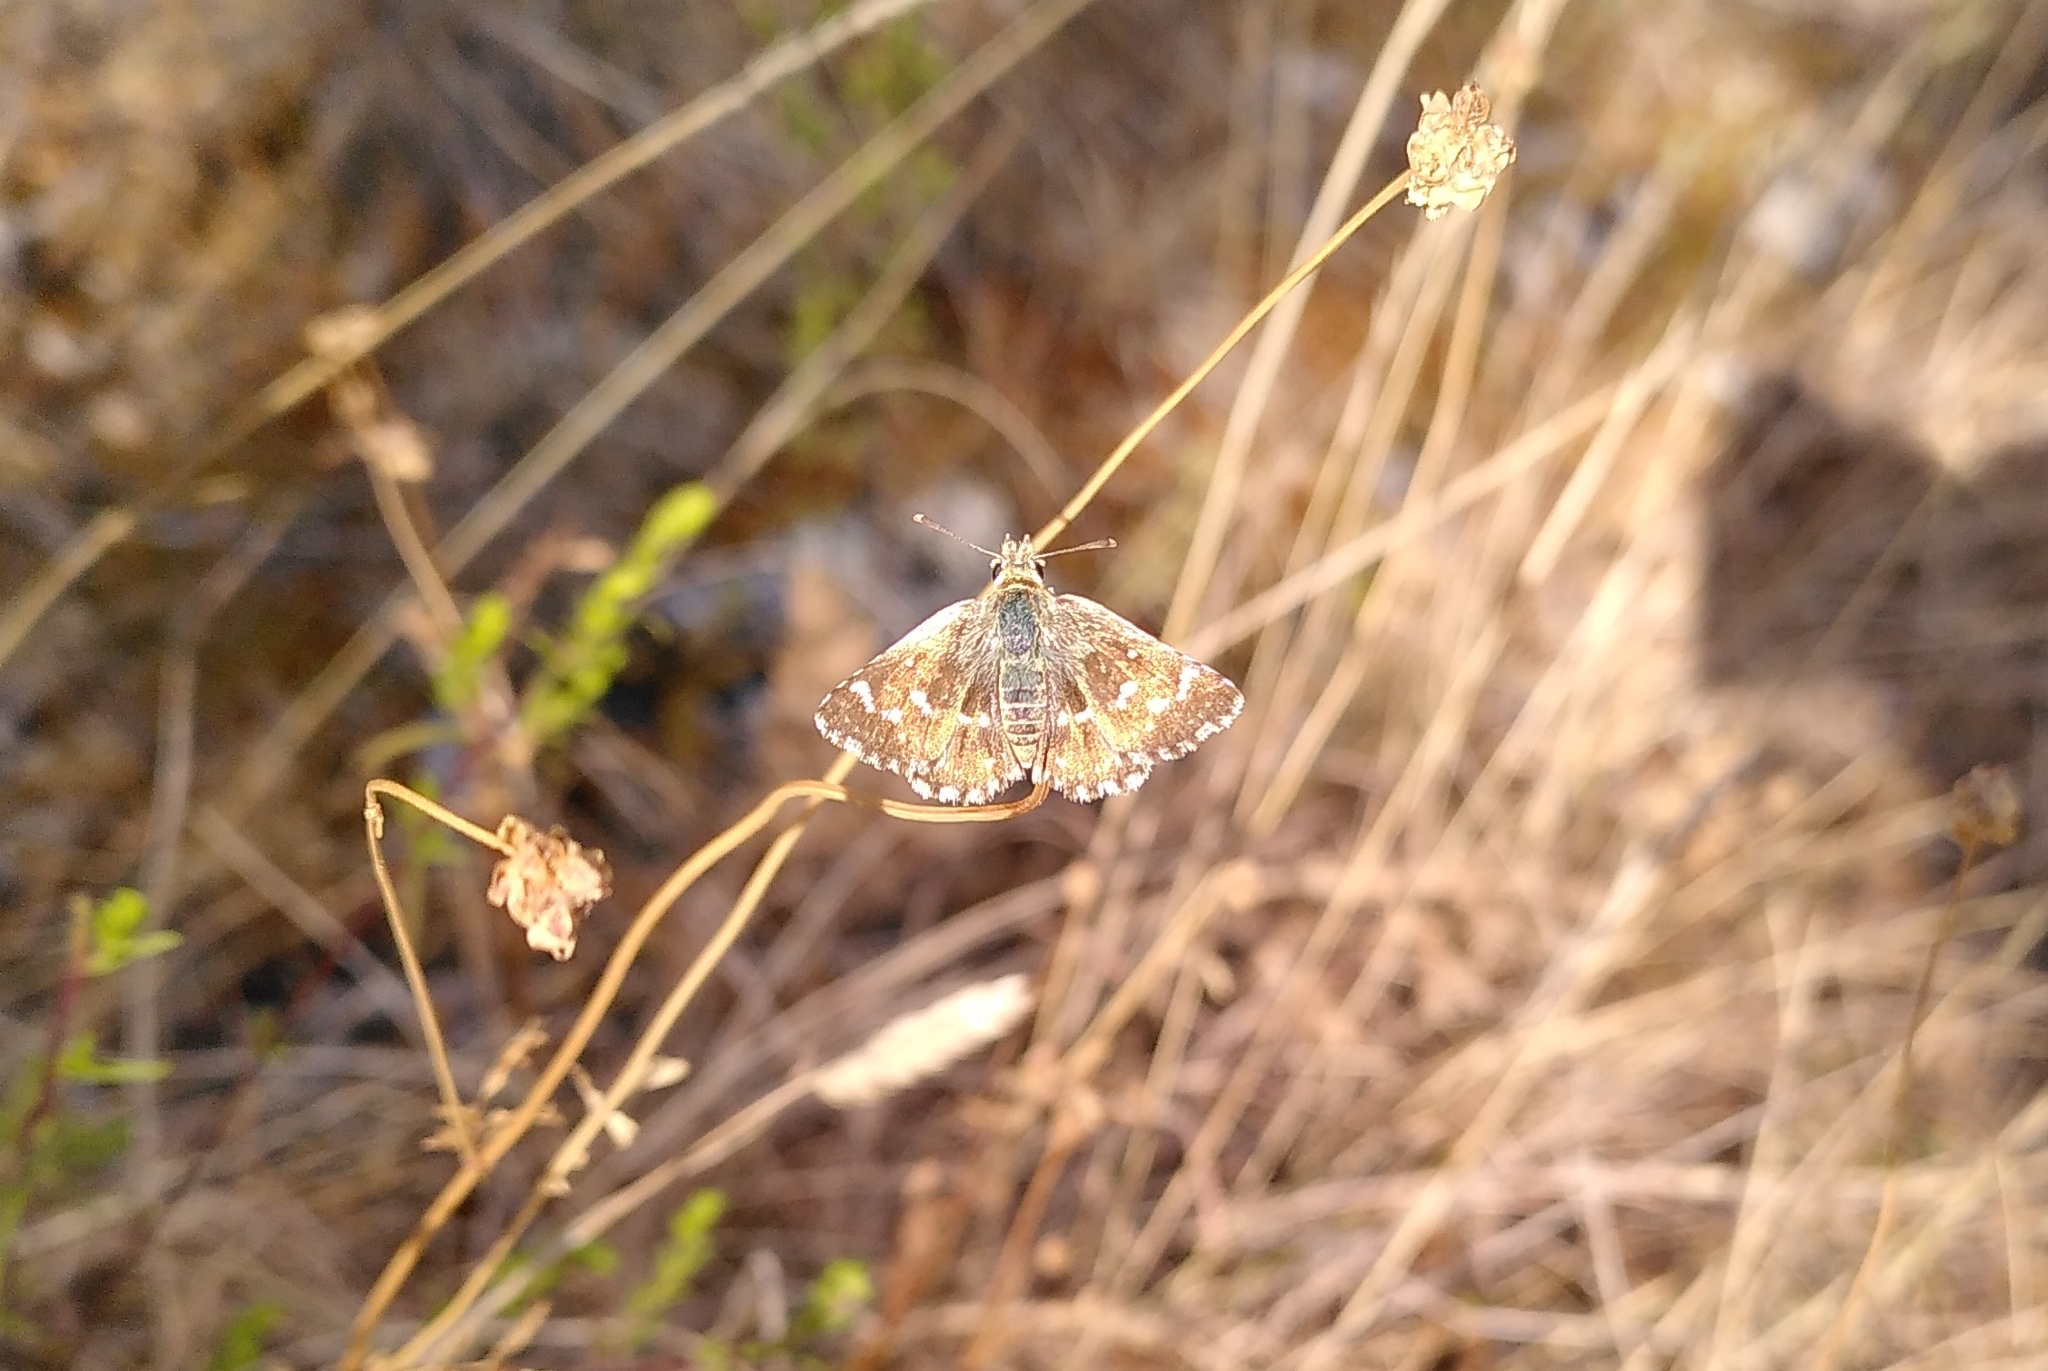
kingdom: Animalia
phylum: Arthropoda
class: Insecta
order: Lepidoptera
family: Hesperiidae
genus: Spialia
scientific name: Spialia sertorius
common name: Red underwing skipper
